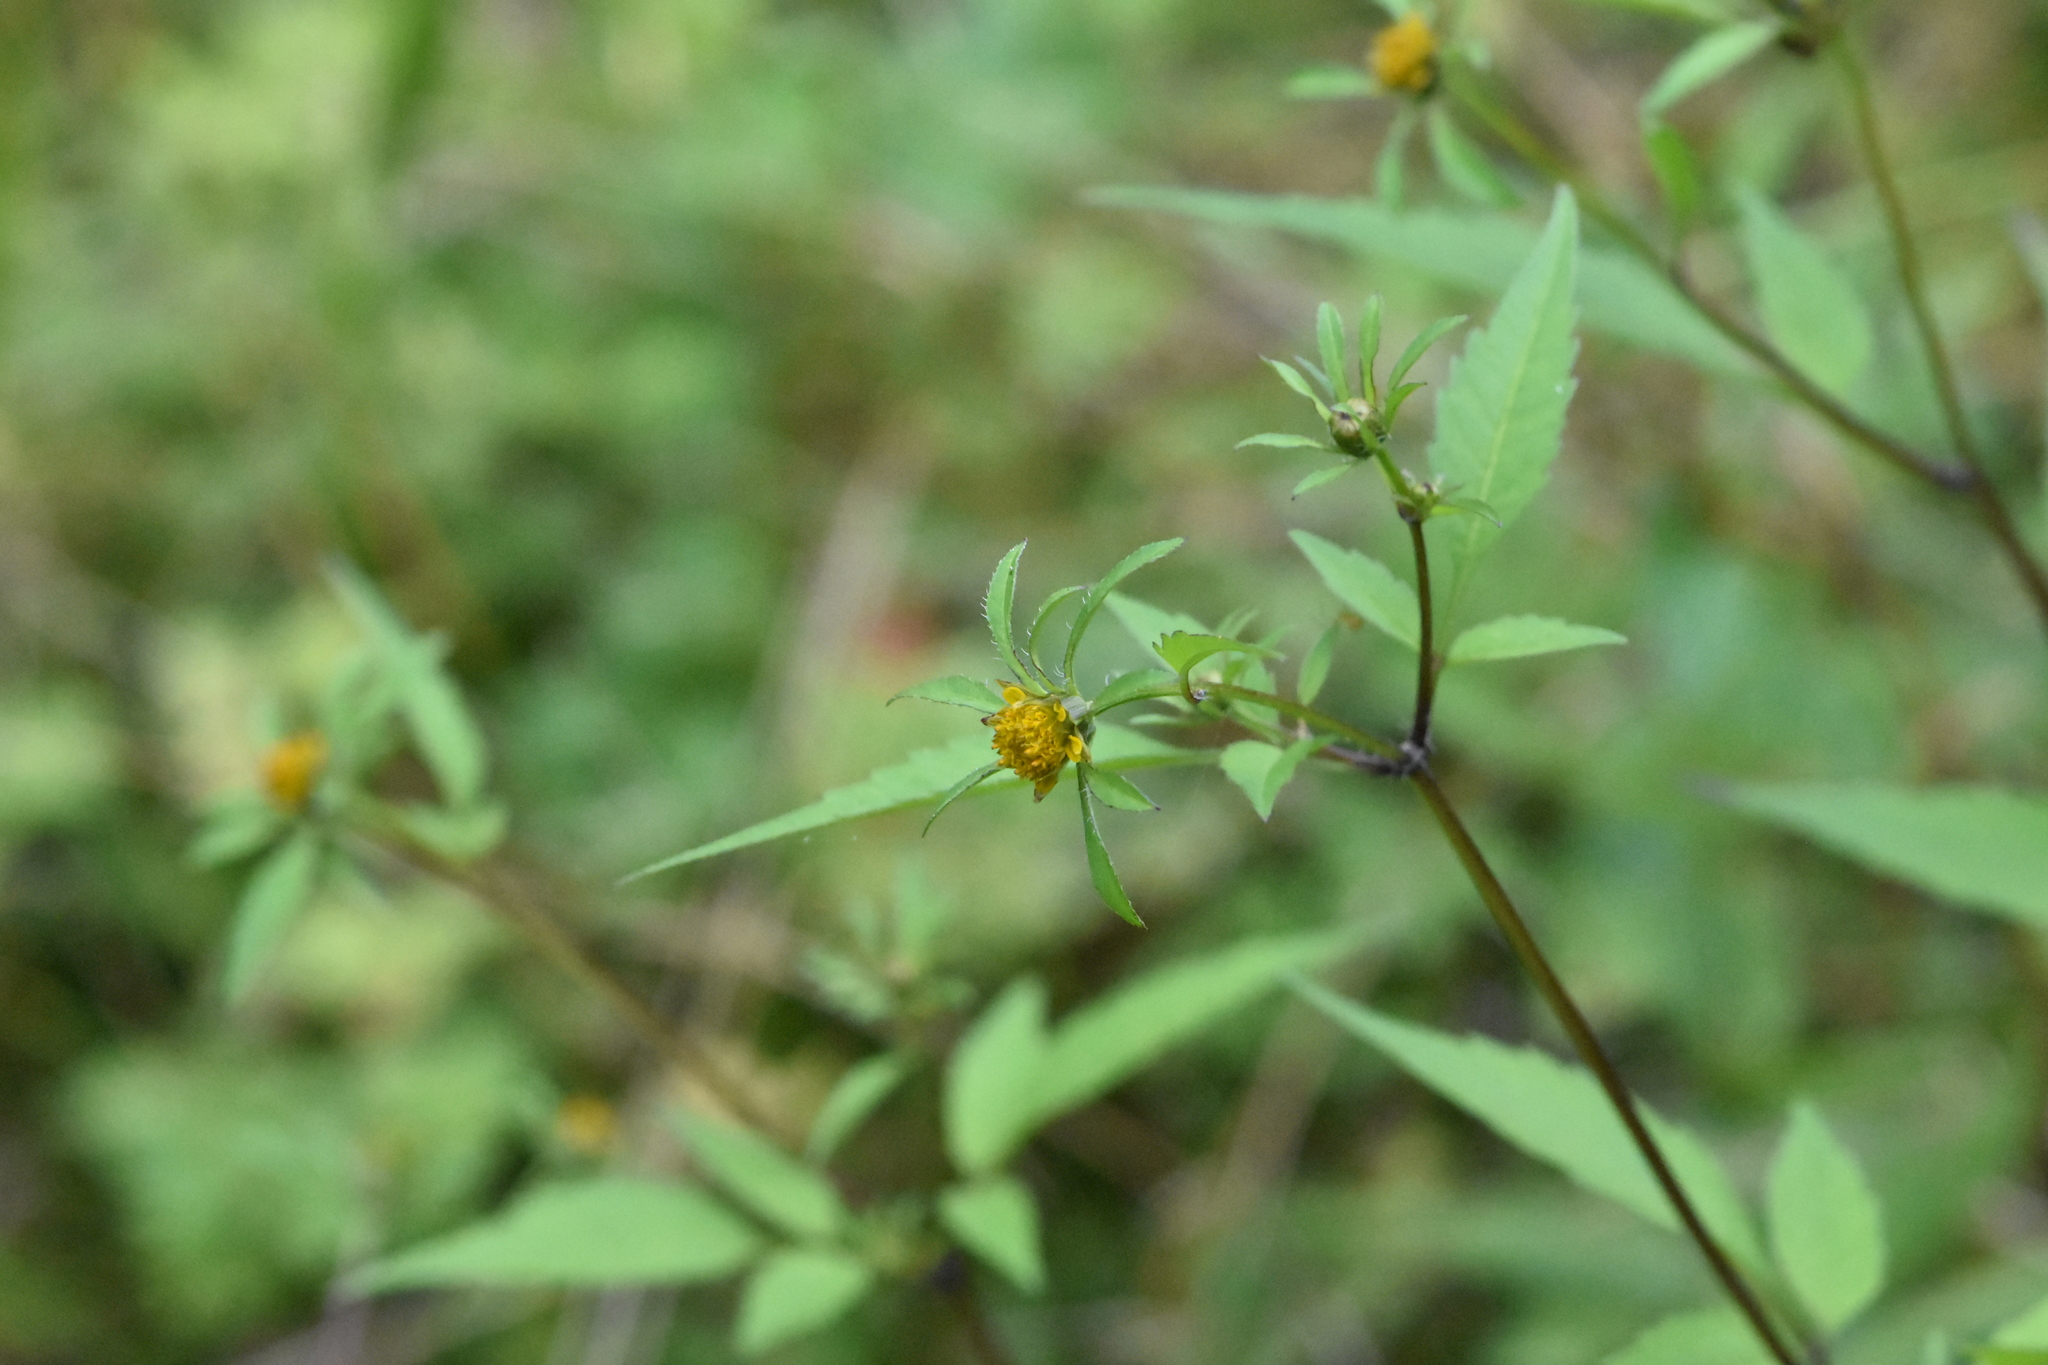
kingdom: Plantae
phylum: Tracheophyta
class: Magnoliopsida
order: Asterales
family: Asteraceae
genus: Bidens
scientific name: Bidens frondosa
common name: Beggarticks
